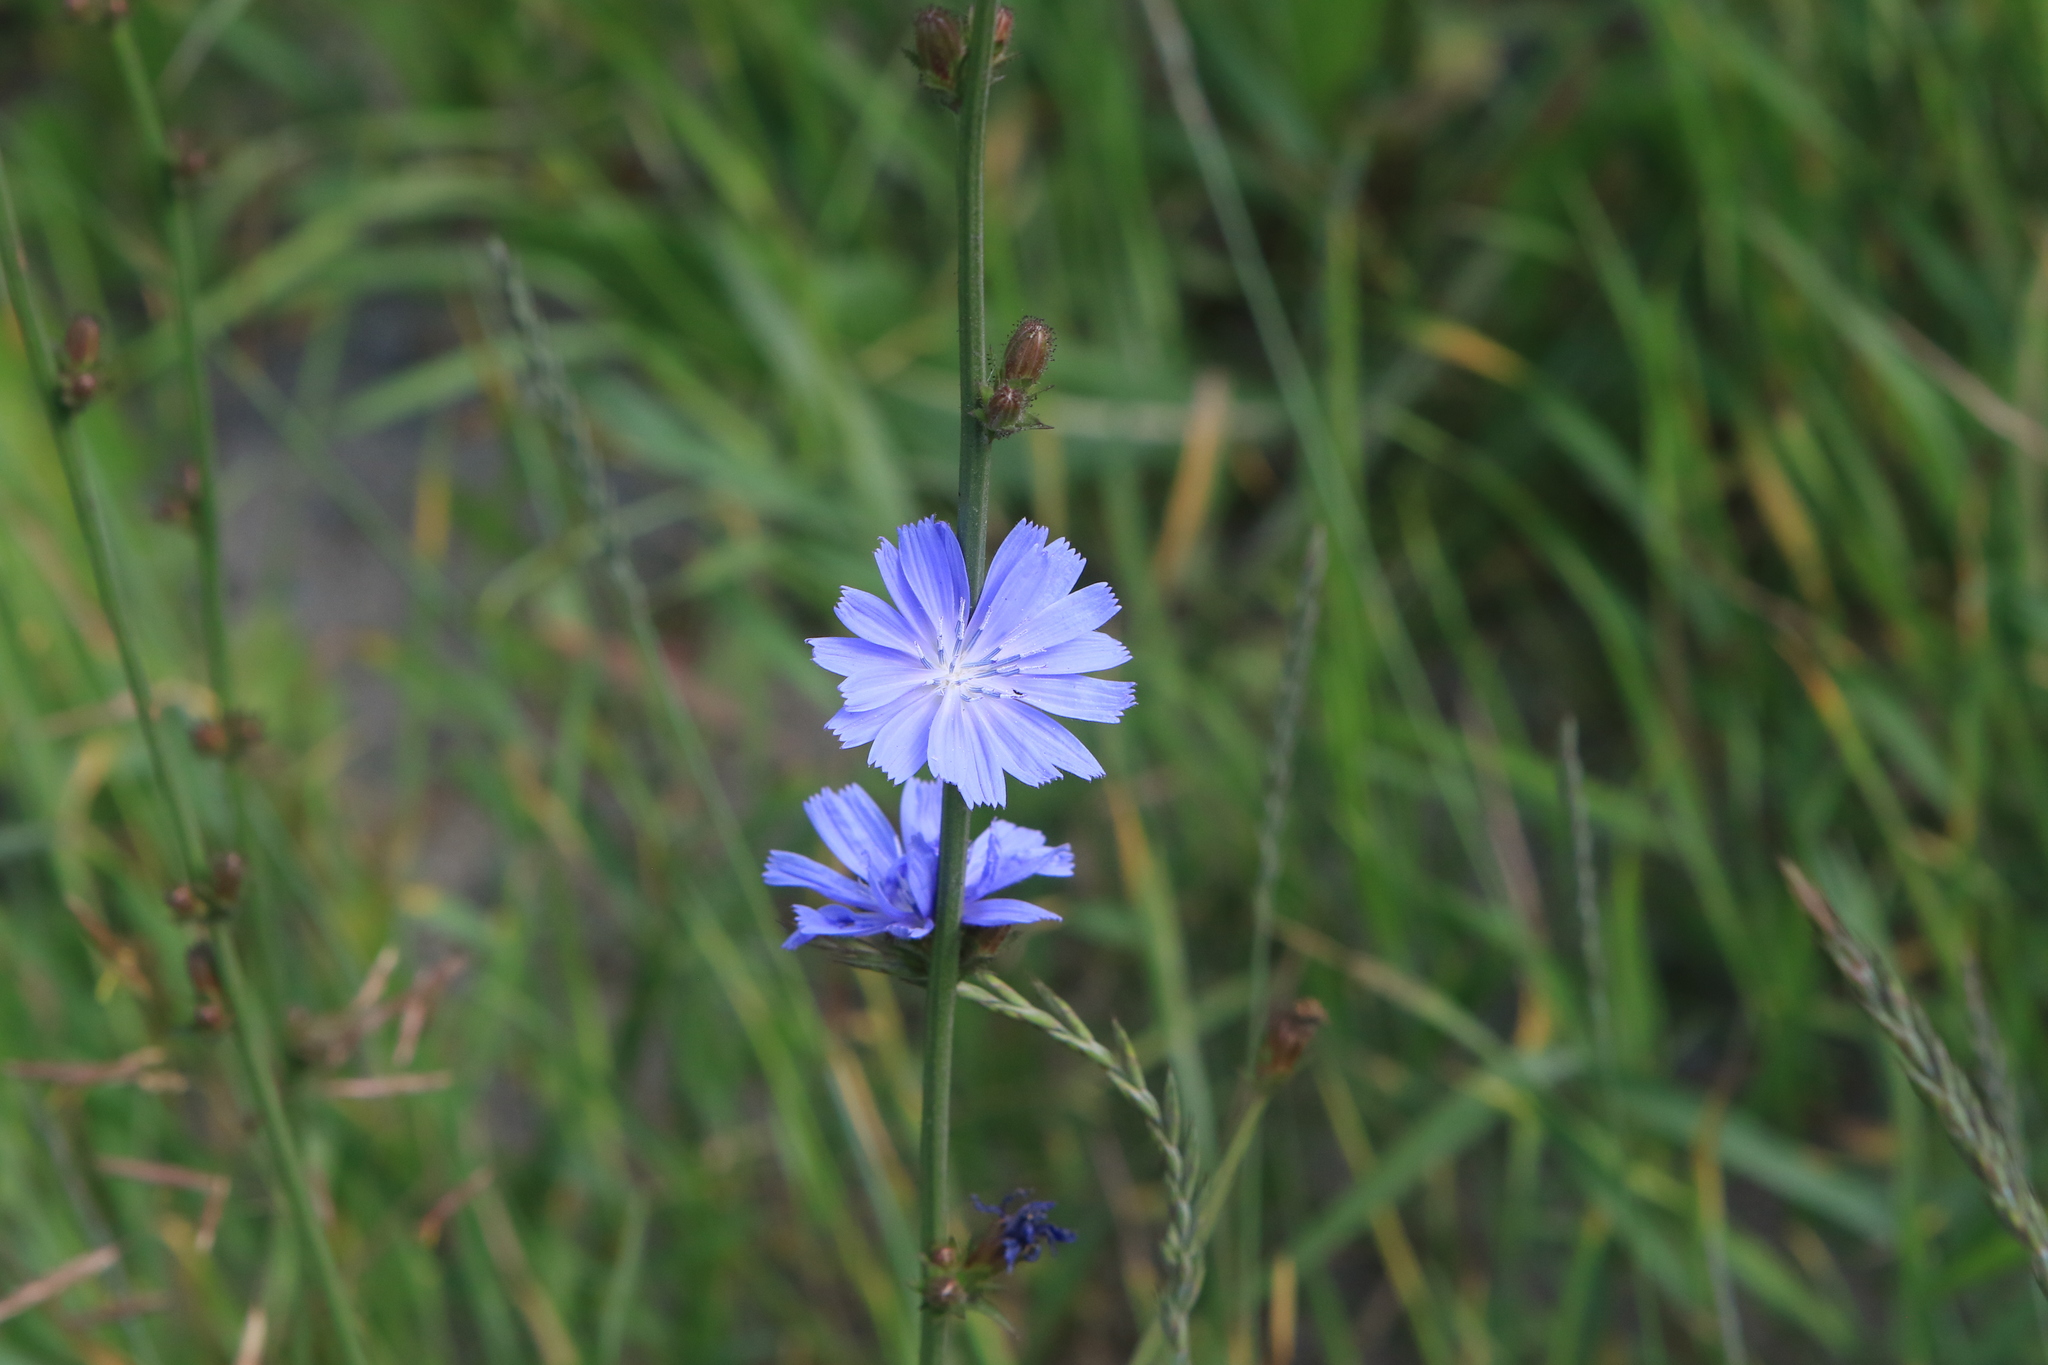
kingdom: Plantae
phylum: Tracheophyta
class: Magnoliopsida
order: Asterales
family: Asteraceae
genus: Cichorium
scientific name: Cichorium intybus
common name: Chicory
